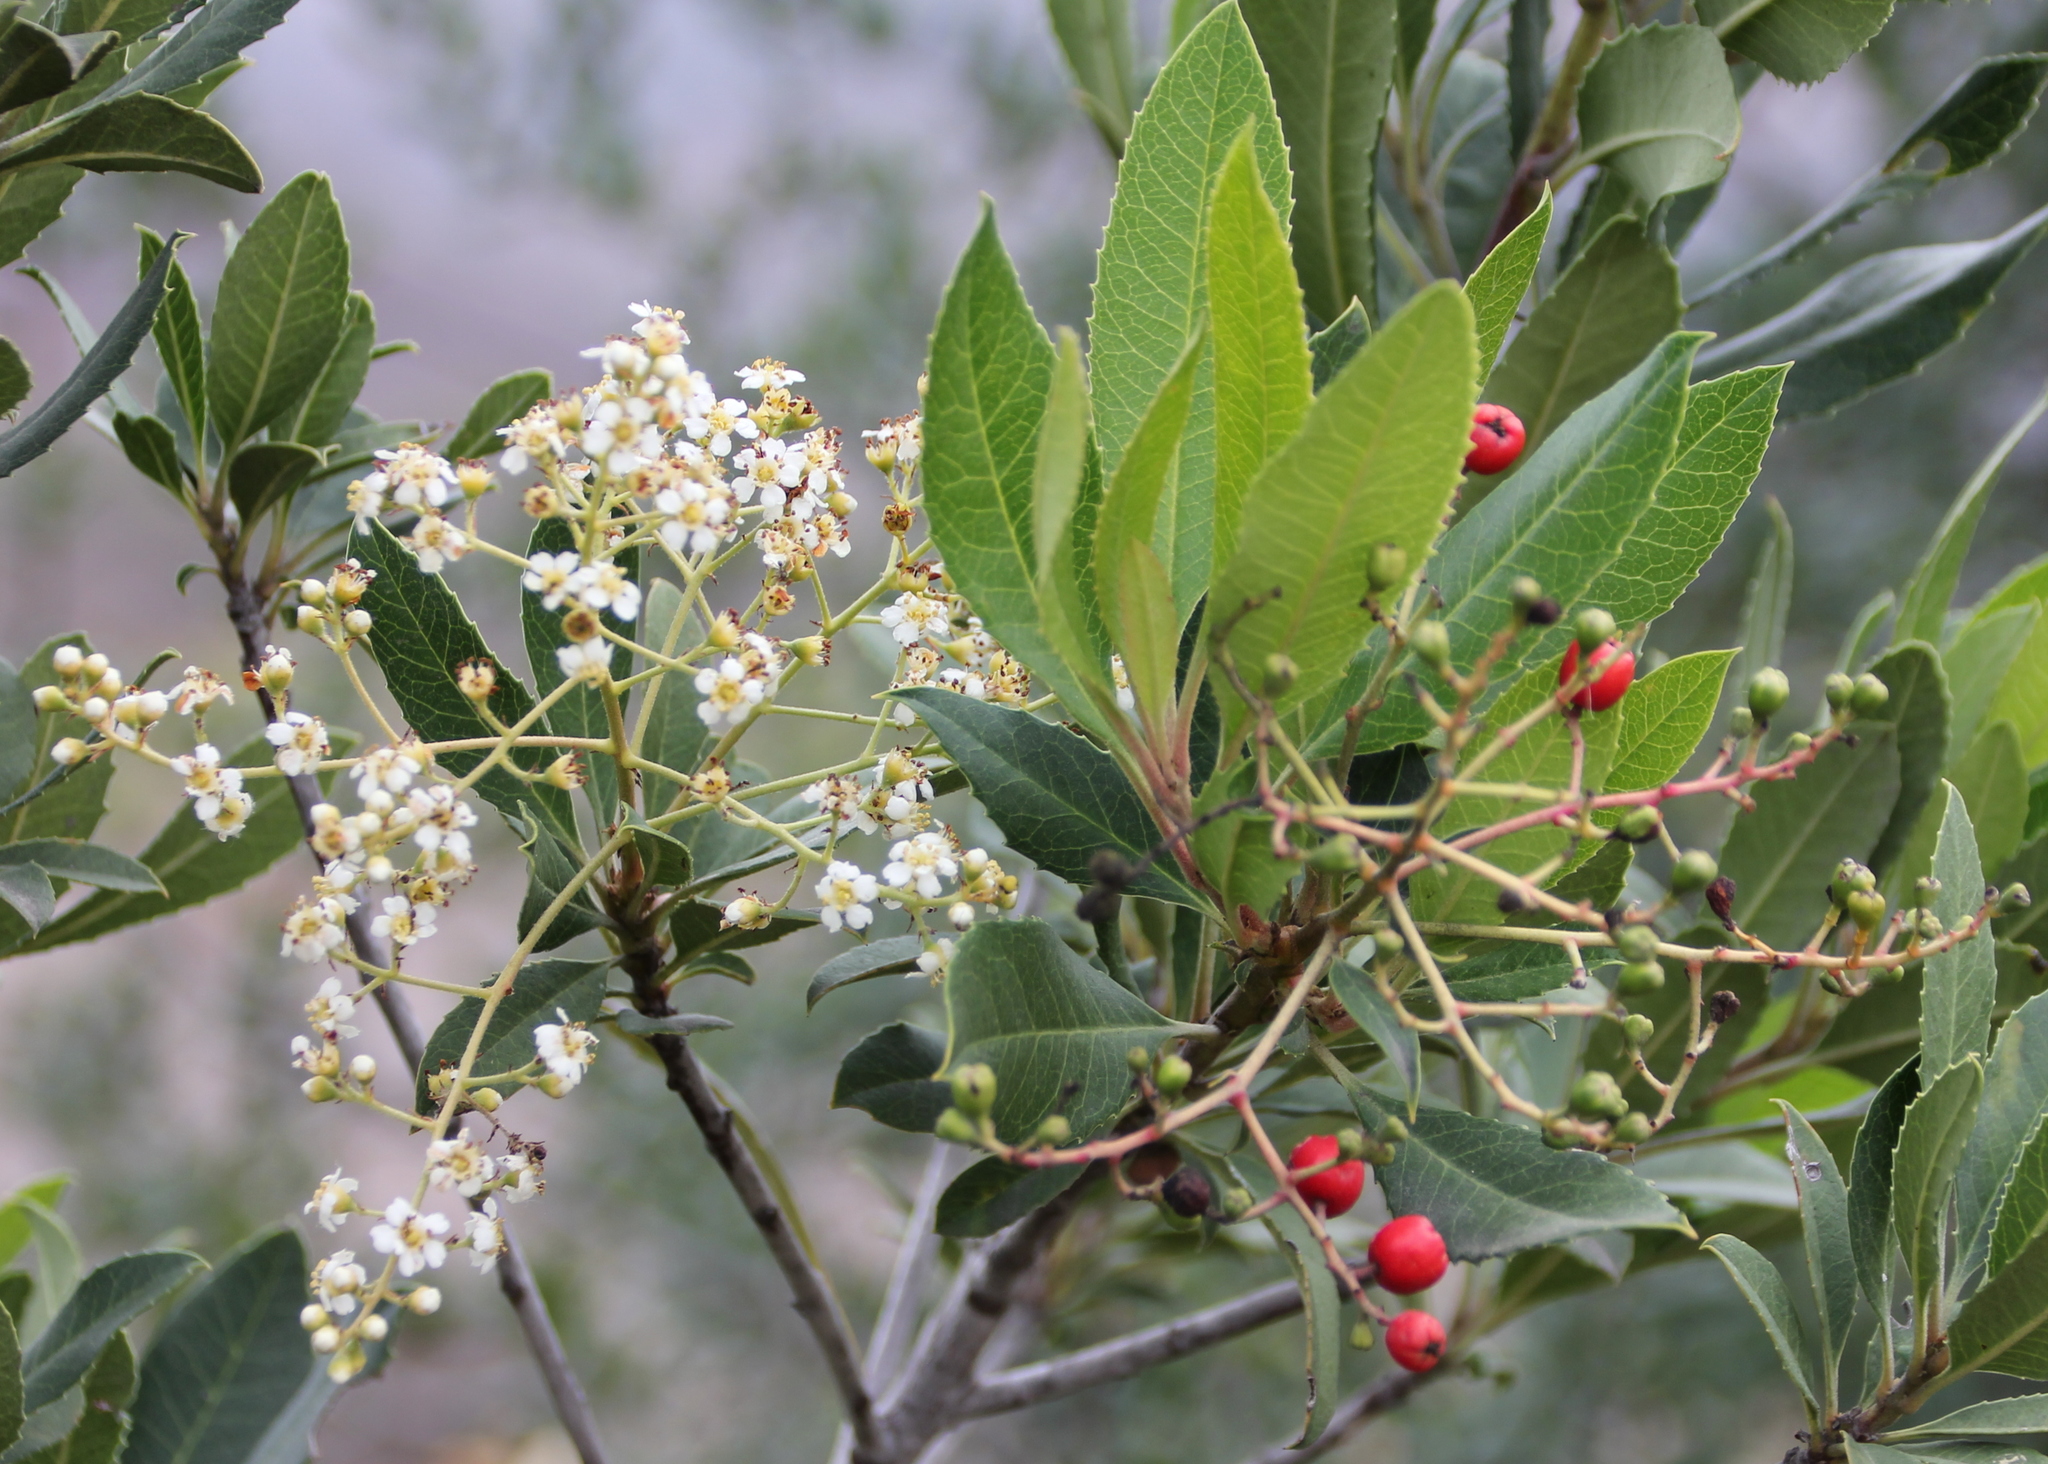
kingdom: Plantae
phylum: Tracheophyta
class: Magnoliopsida
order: Rosales
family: Rosaceae
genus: Heteromeles
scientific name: Heteromeles arbutifolia
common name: California-holly
